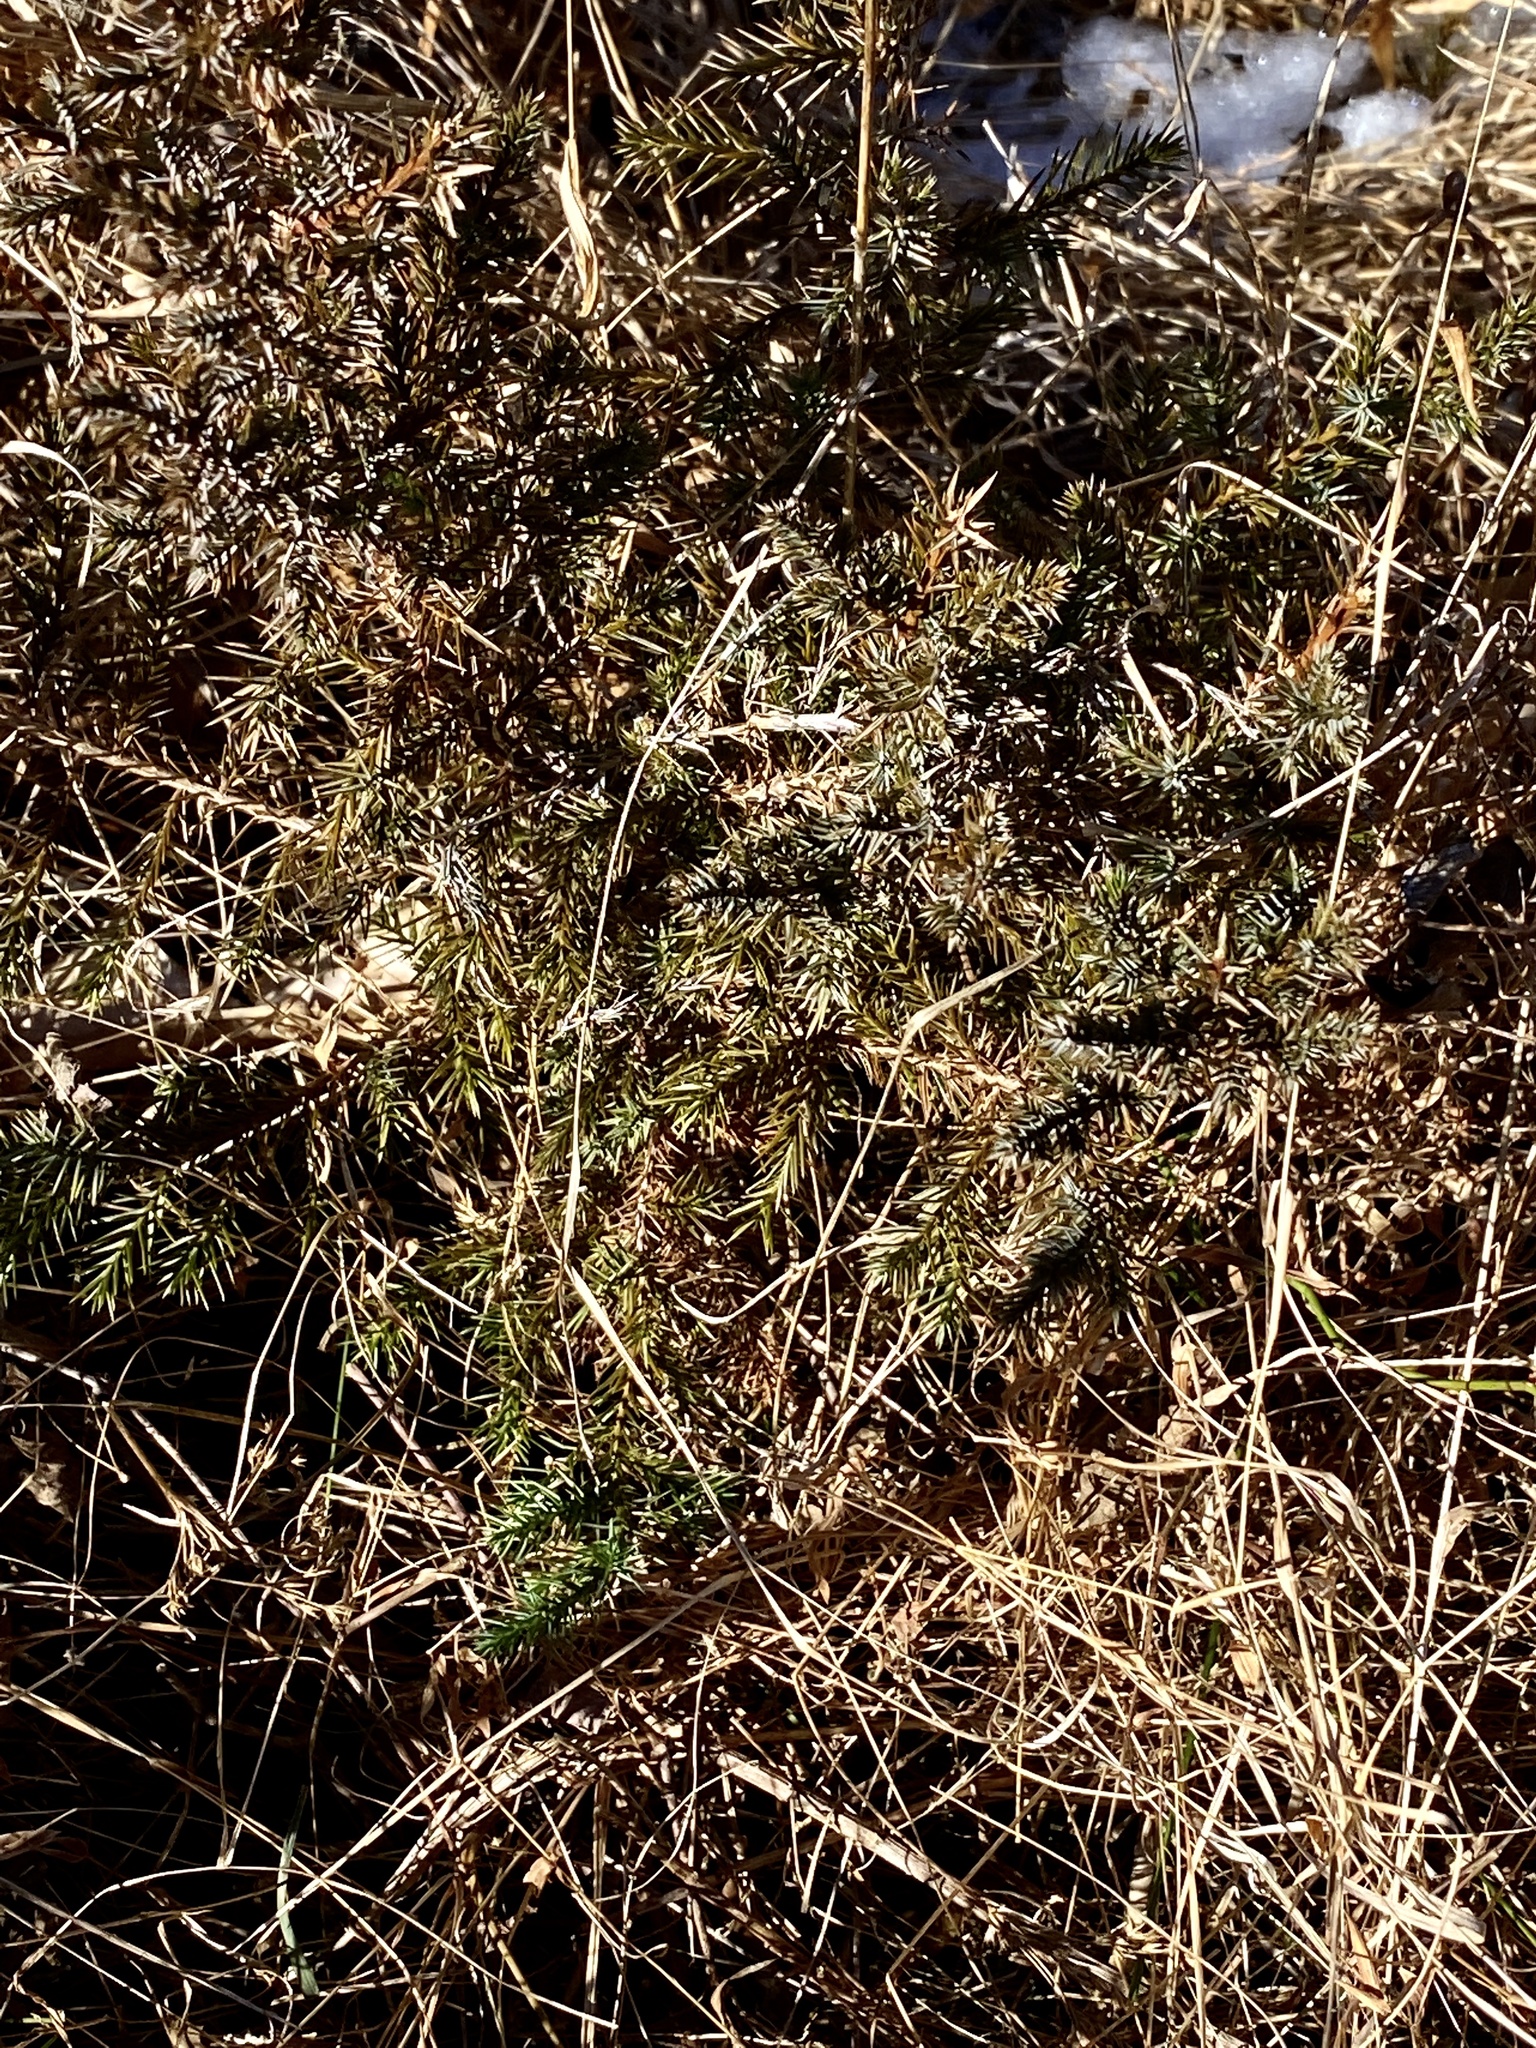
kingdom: Plantae
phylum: Tracheophyta
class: Pinopsida
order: Pinales
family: Cupressaceae
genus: Juniperus
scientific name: Juniperus virginiana
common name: Red juniper
